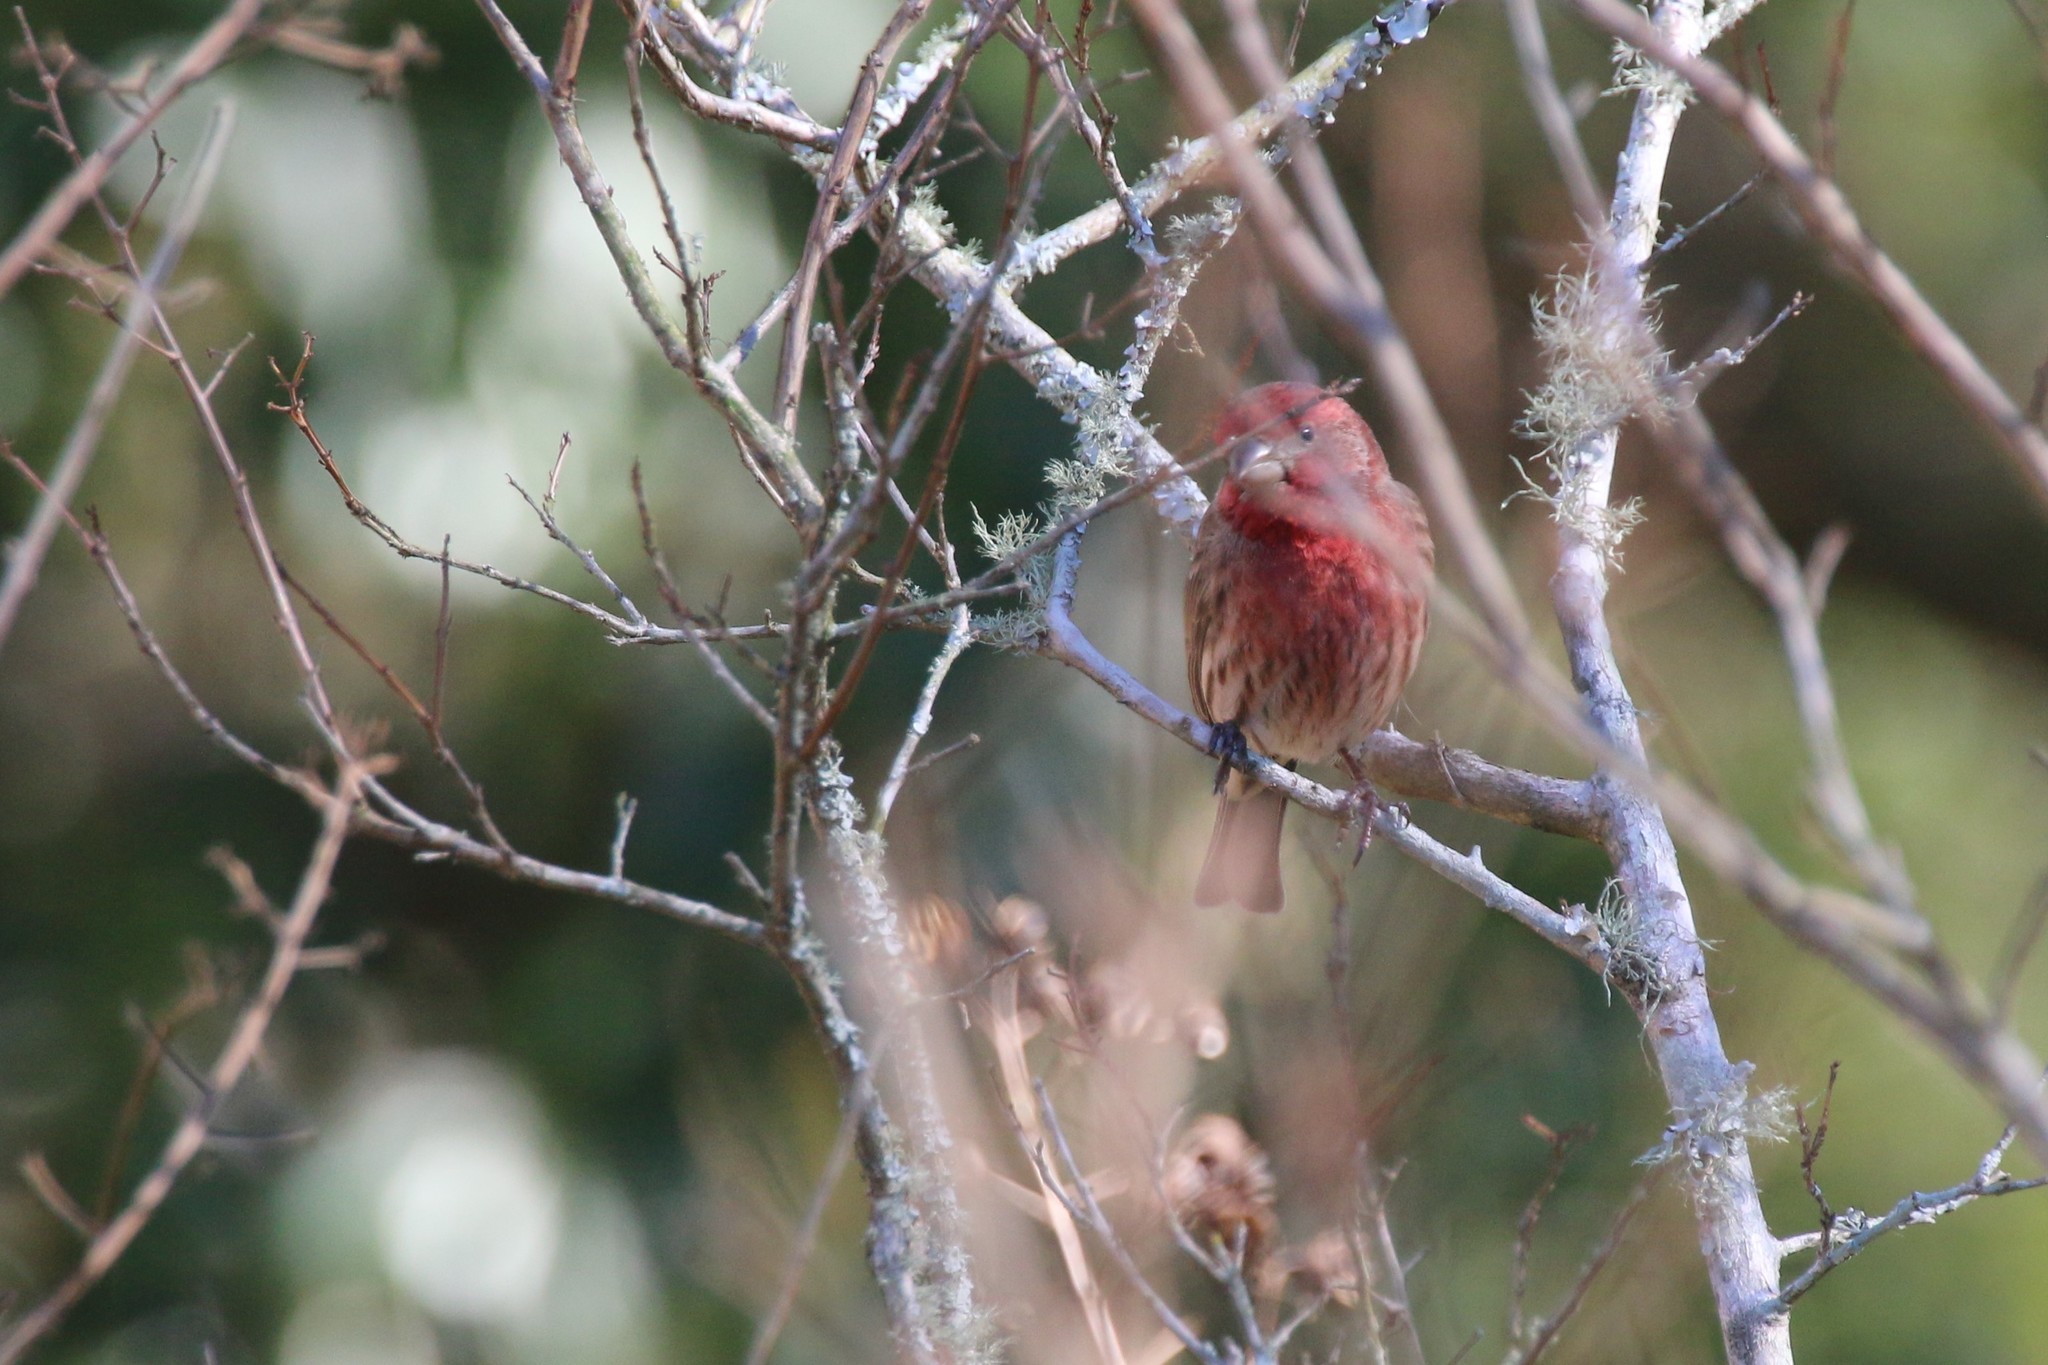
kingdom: Animalia
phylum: Chordata
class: Aves
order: Passeriformes
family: Fringillidae
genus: Haemorhous
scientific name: Haemorhous mexicanus
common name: House finch
